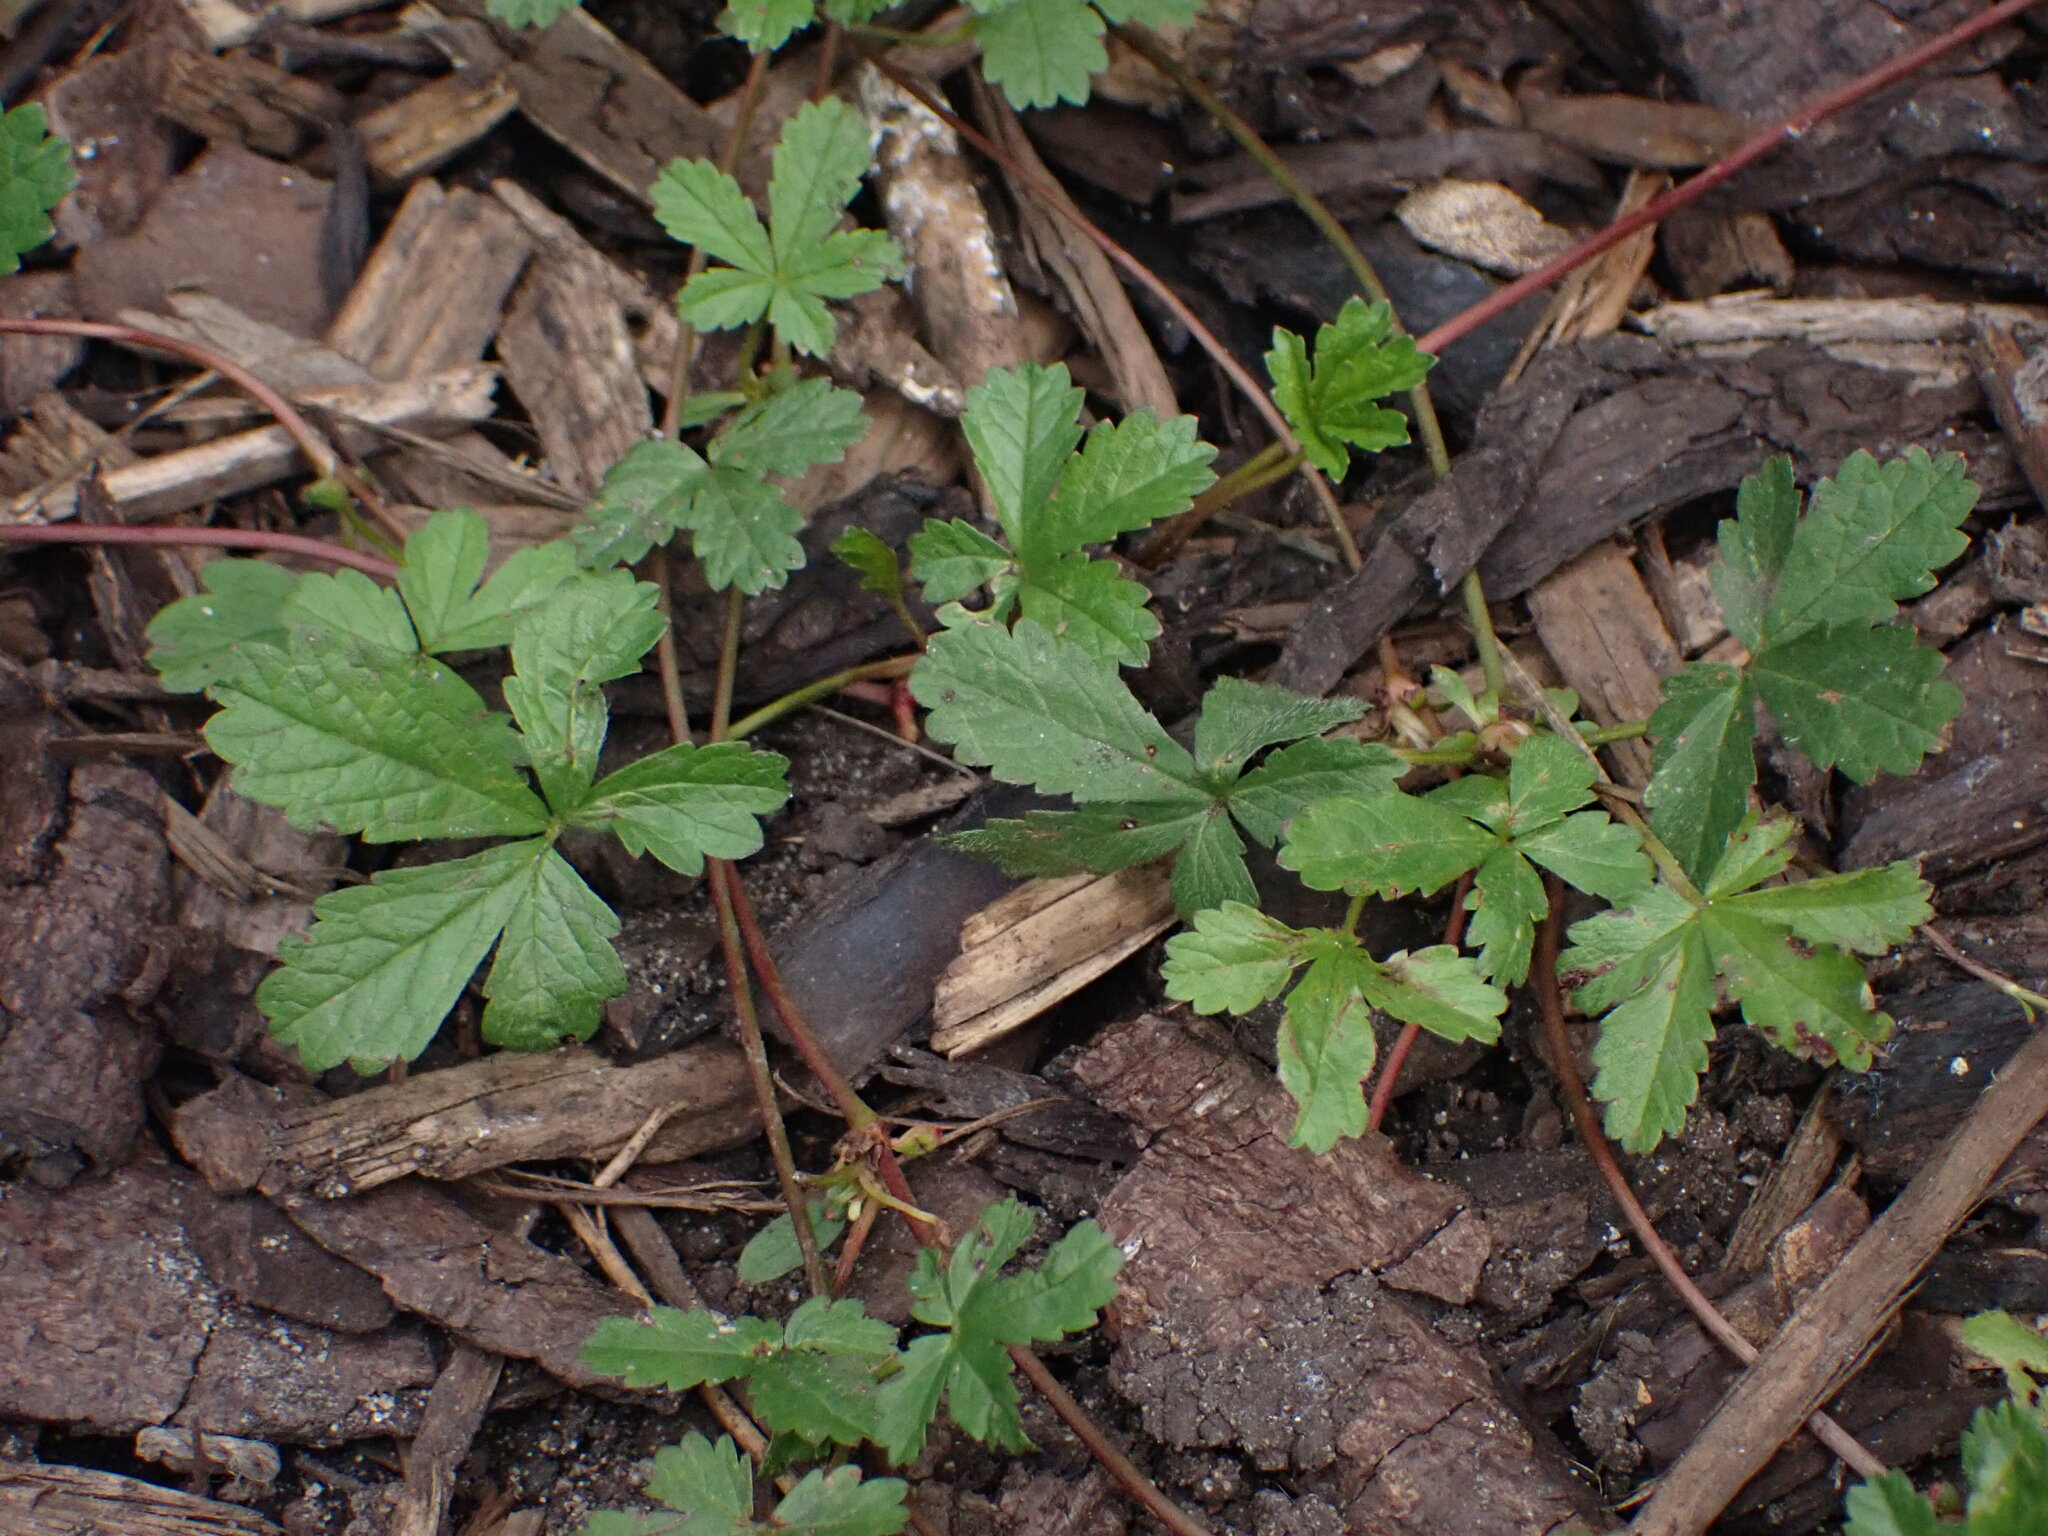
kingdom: Plantae
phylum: Tracheophyta
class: Magnoliopsida
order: Rosales
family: Rosaceae
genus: Potentilla
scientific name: Potentilla reptans
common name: Creeping cinquefoil
